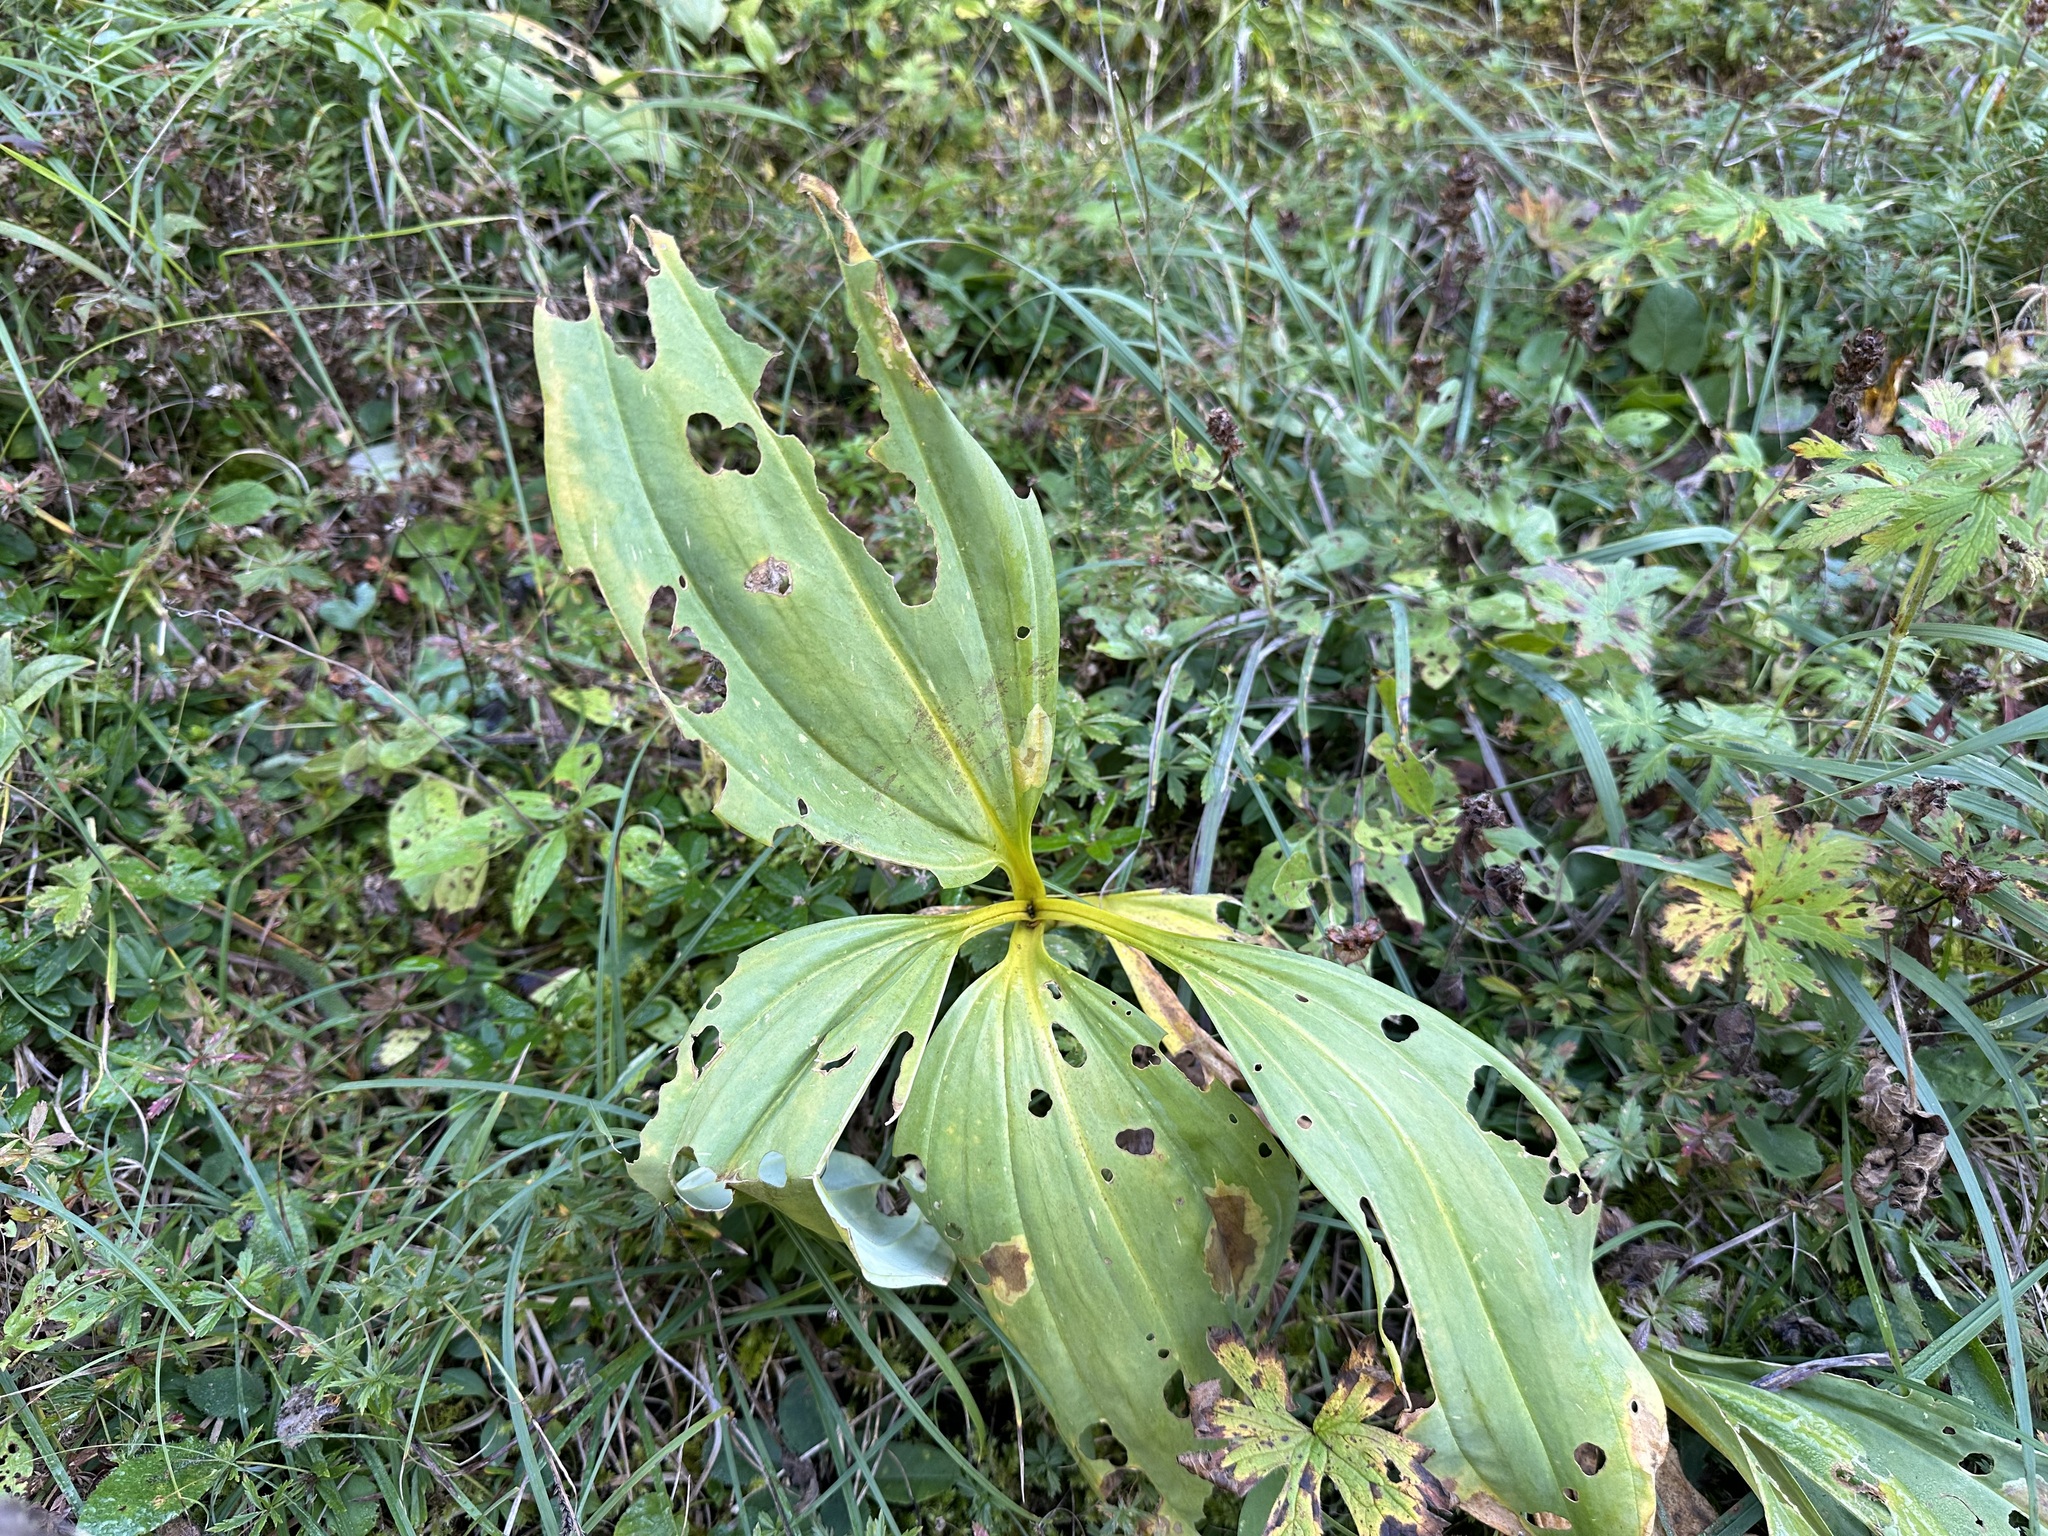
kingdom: Plantae
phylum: Tracheophyta
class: Magnoliopsida
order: Gentianales
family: Gentianaceae
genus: Gentiana
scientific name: Gentiana lutea
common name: Great yellow gentian
